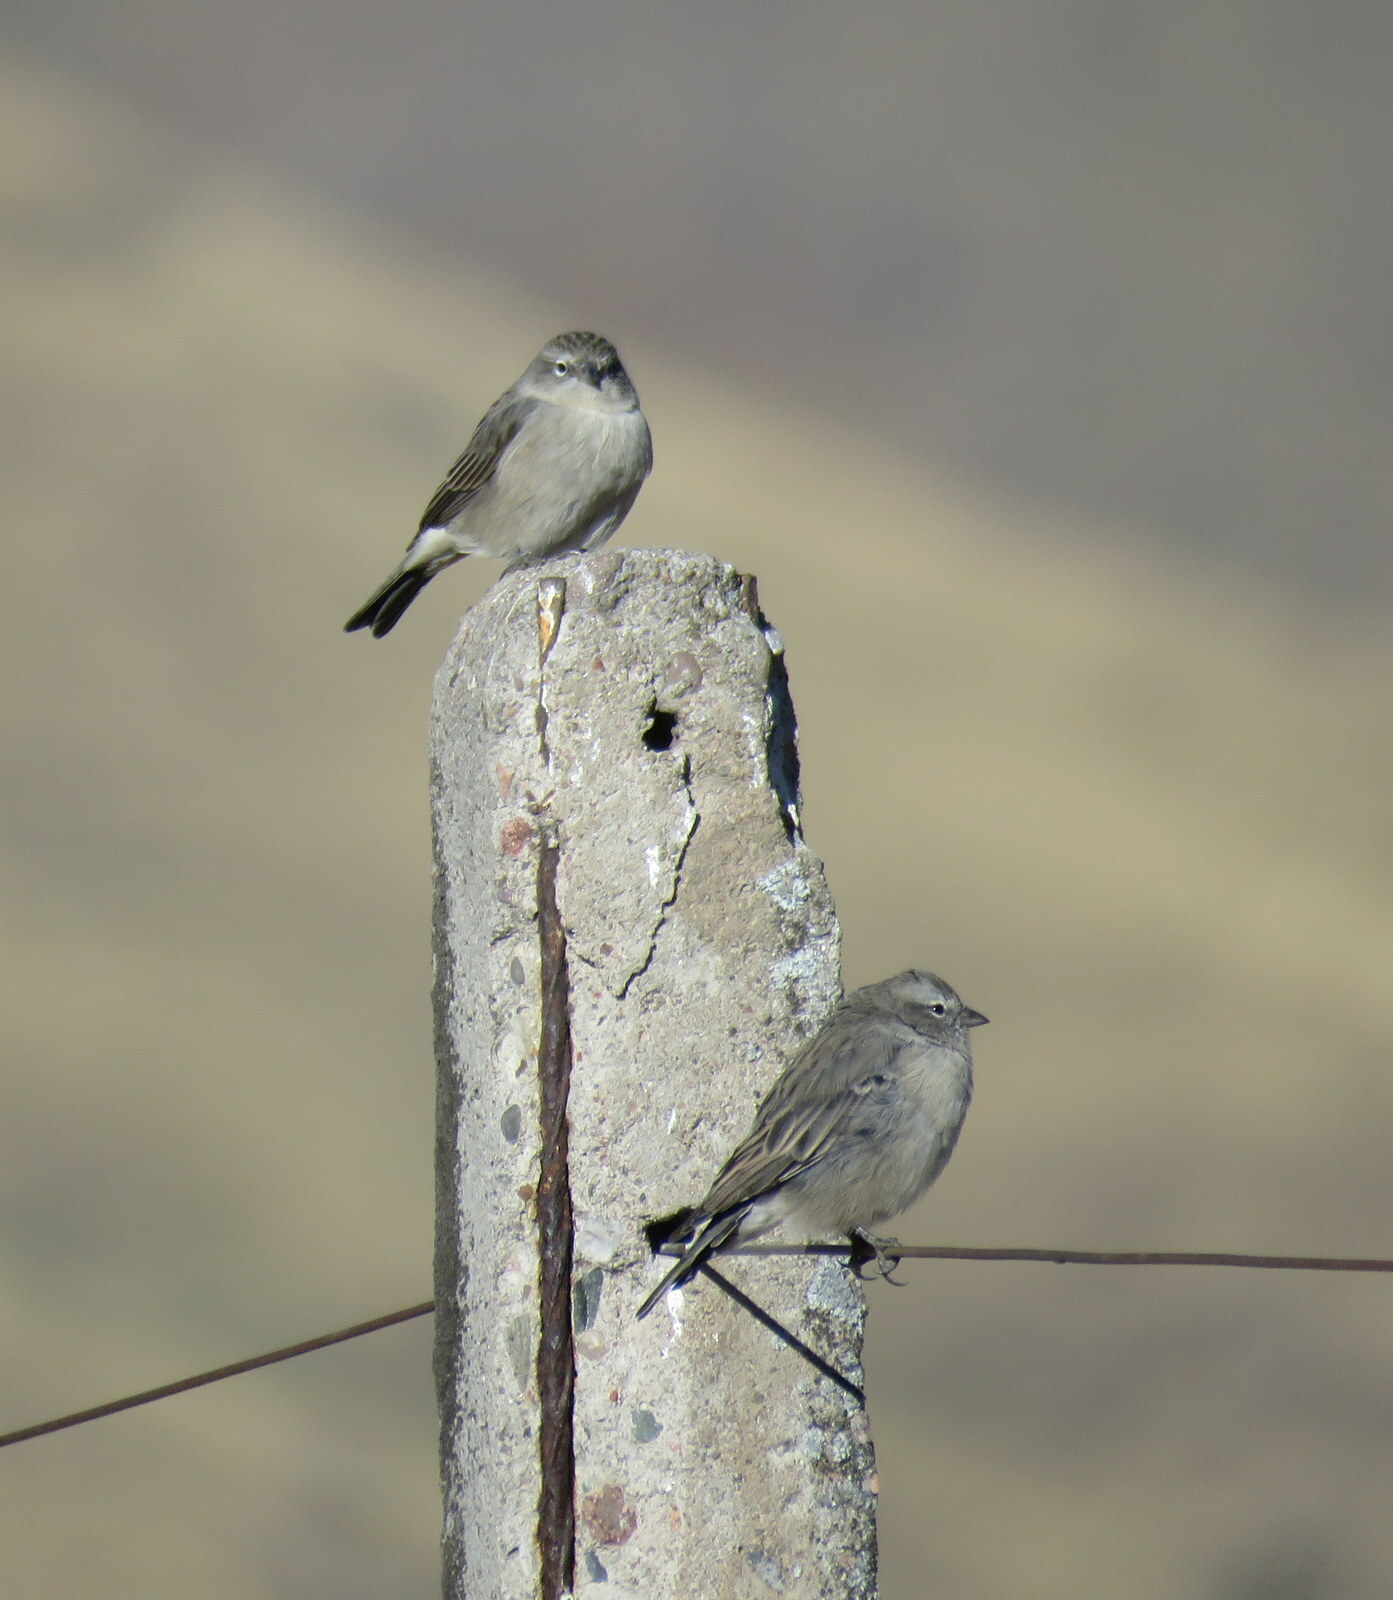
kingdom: Animalia
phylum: Chordata
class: Aves
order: Passeriformes
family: Thraupidae
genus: Geospizopsis
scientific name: Geospizopsis plebejus
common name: Ash-breasted sierra-finch
